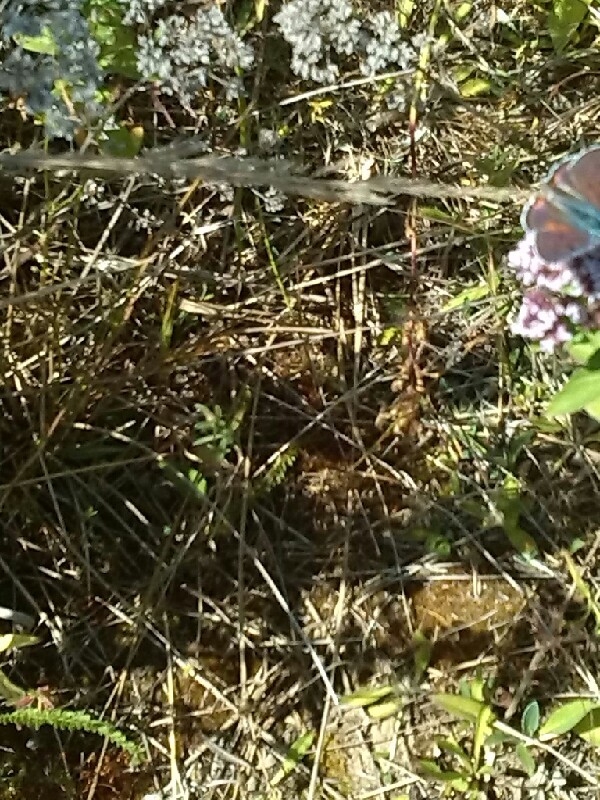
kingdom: Animalia
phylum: Arthropoda
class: Insecta
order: Lepidoptera
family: Lycaenidae
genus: Lycaena
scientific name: Lycaena alciphron
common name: Purple-shot copper
